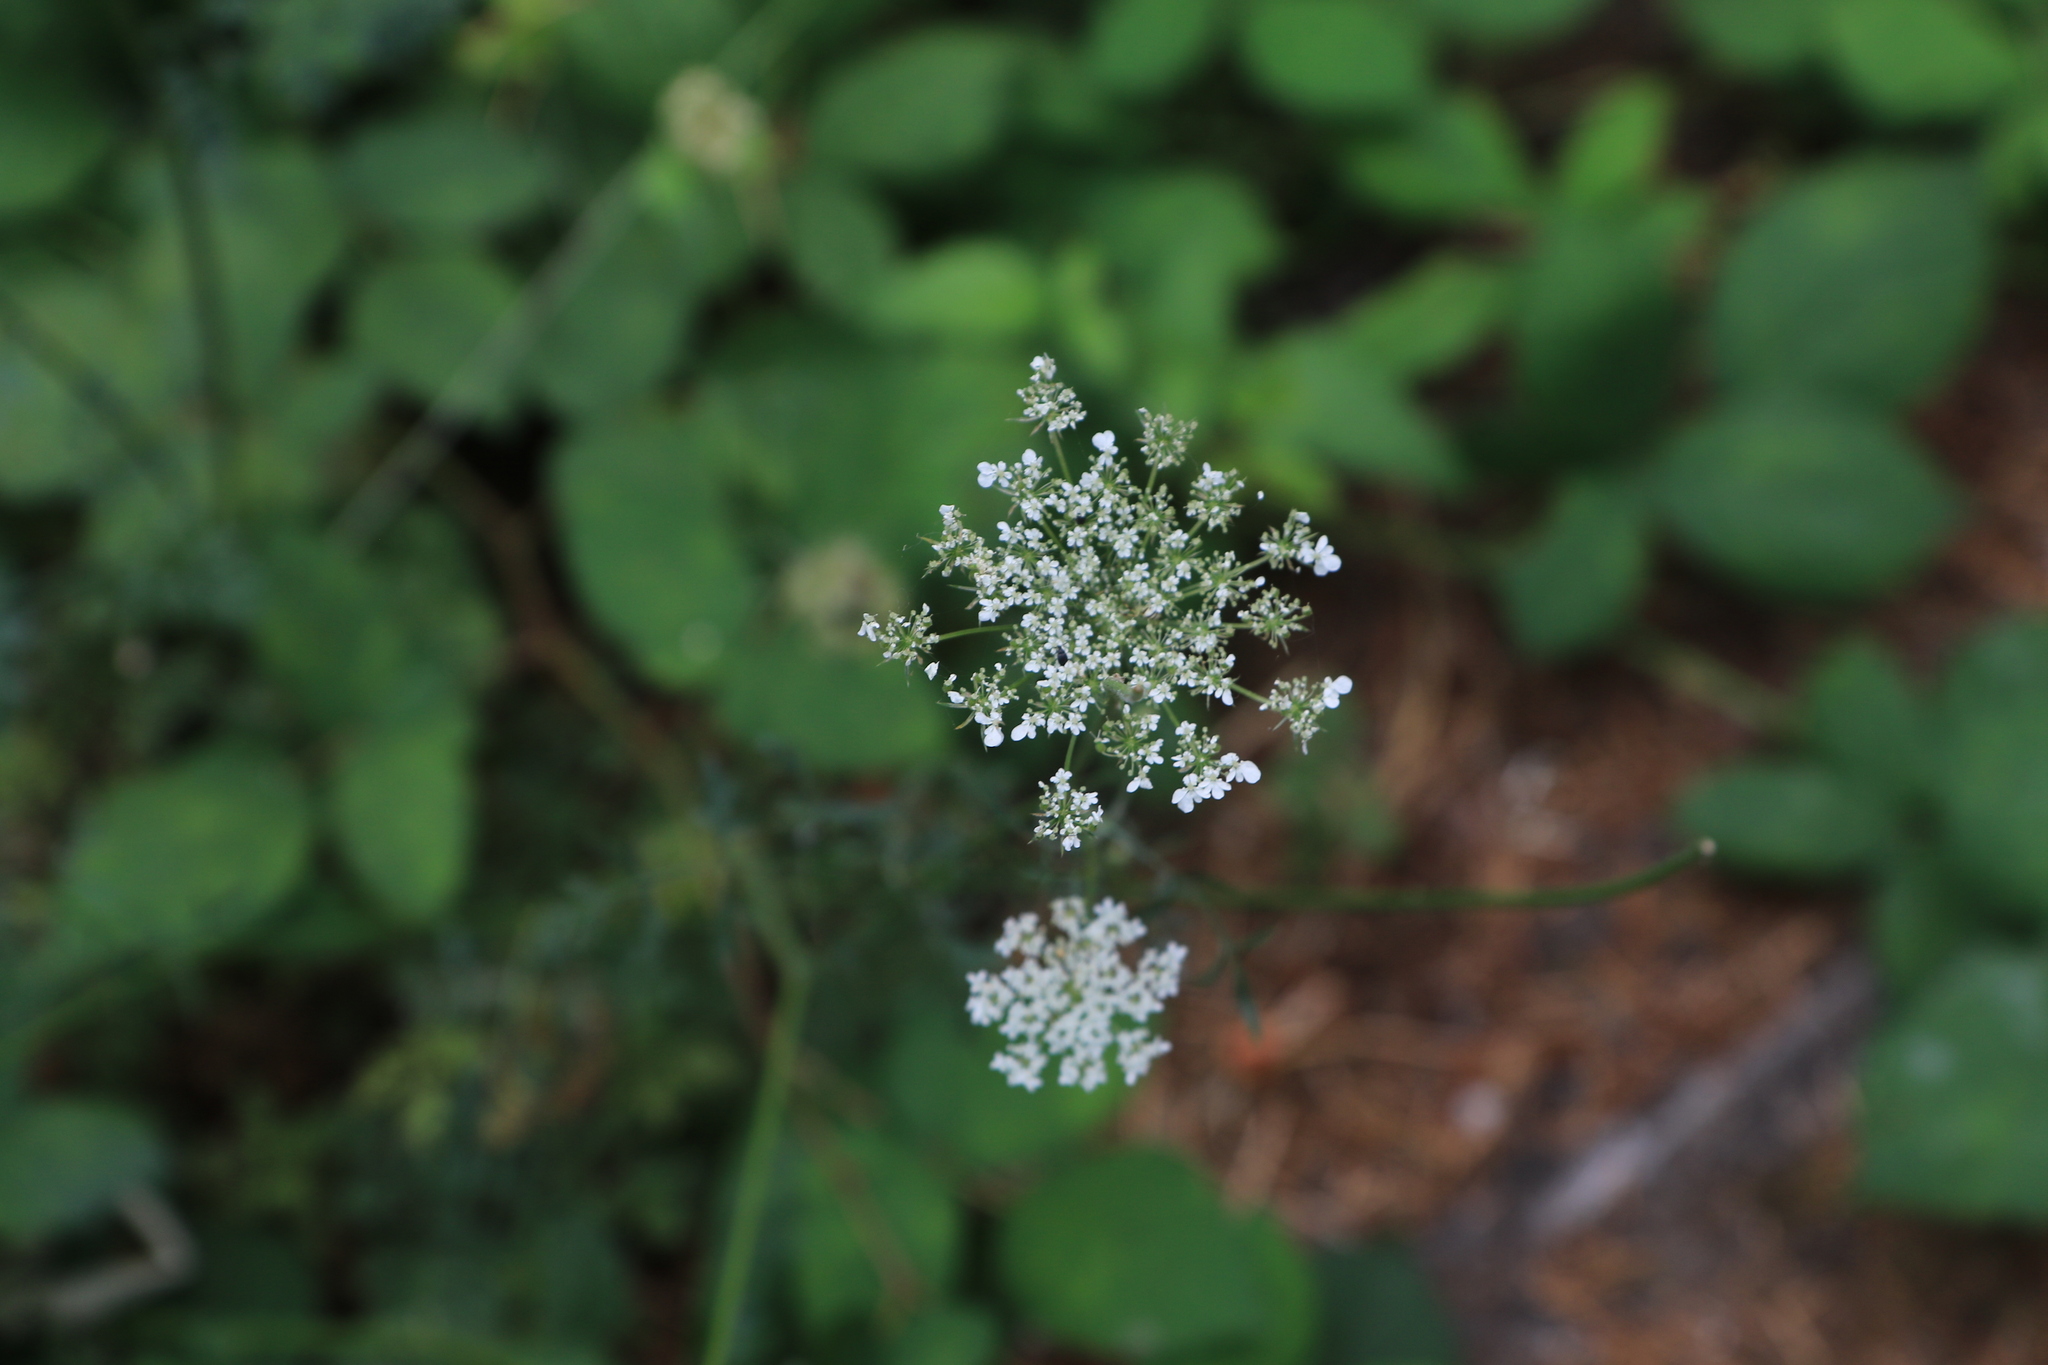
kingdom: Plantae
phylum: Tracheophyta
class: Magnoliopsida
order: Apiales
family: Apiaceae
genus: Daucus
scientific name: Daucus carota
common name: Wild carrot
